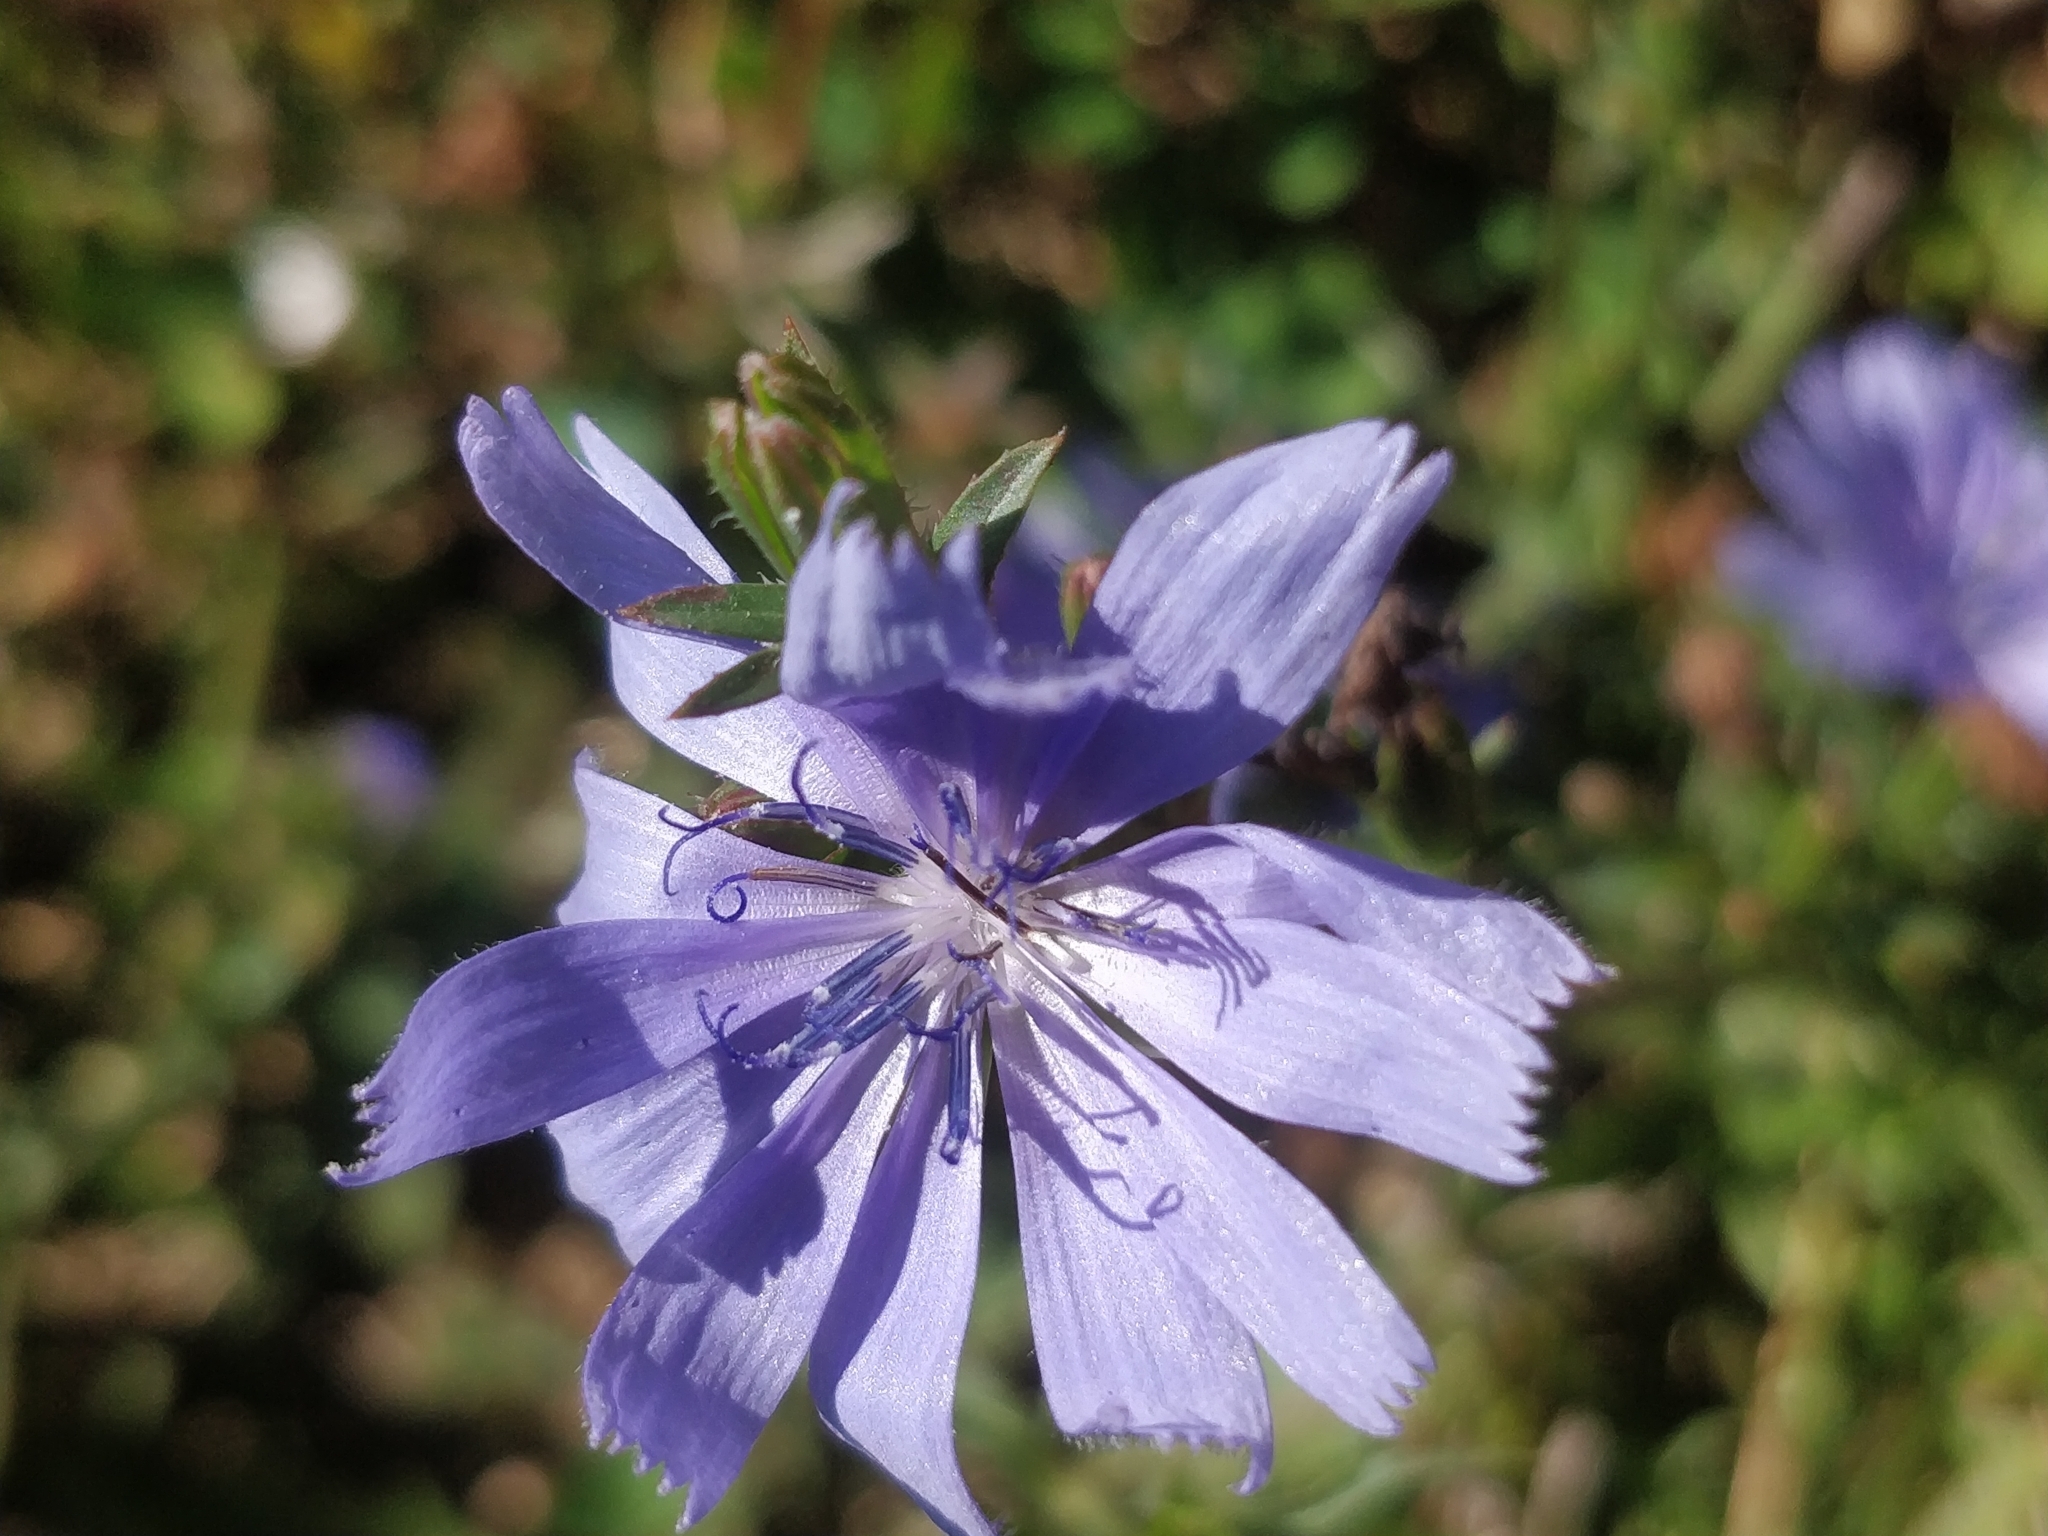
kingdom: Plantae
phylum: Tracheophyta
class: Magnoliopsida
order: Asterales
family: Asteraceae
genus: Cichorium
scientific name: Cichorium intybus
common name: Chicory
